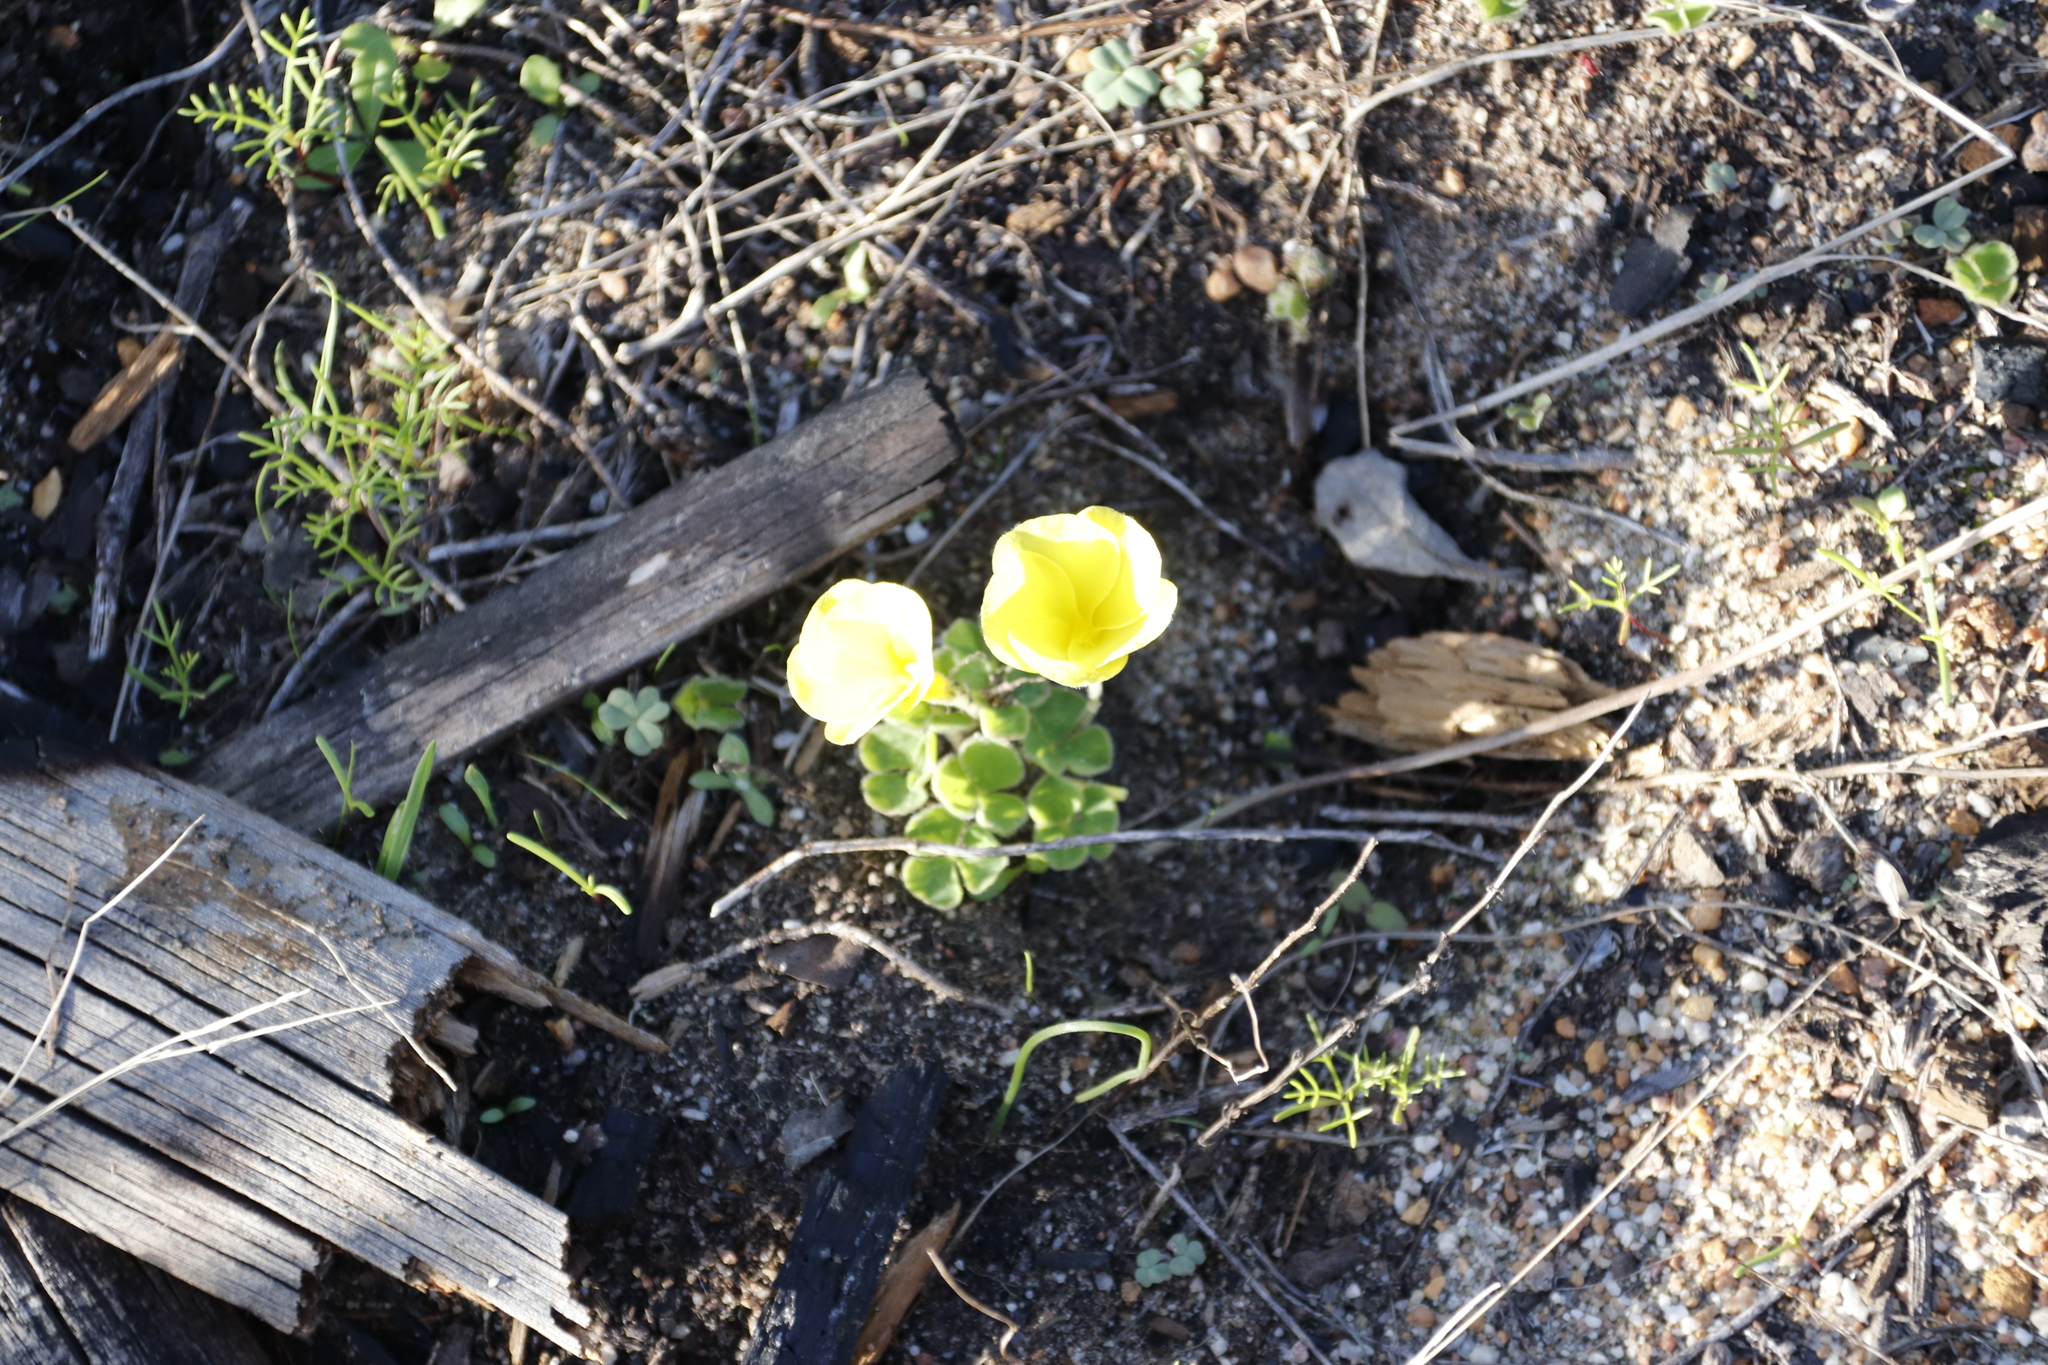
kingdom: Plantae
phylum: Tracheophyta
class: Magnoliopsida
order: Oxalidales
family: Oxalidaceae
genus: Oxalis
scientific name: Oxalis luteola
